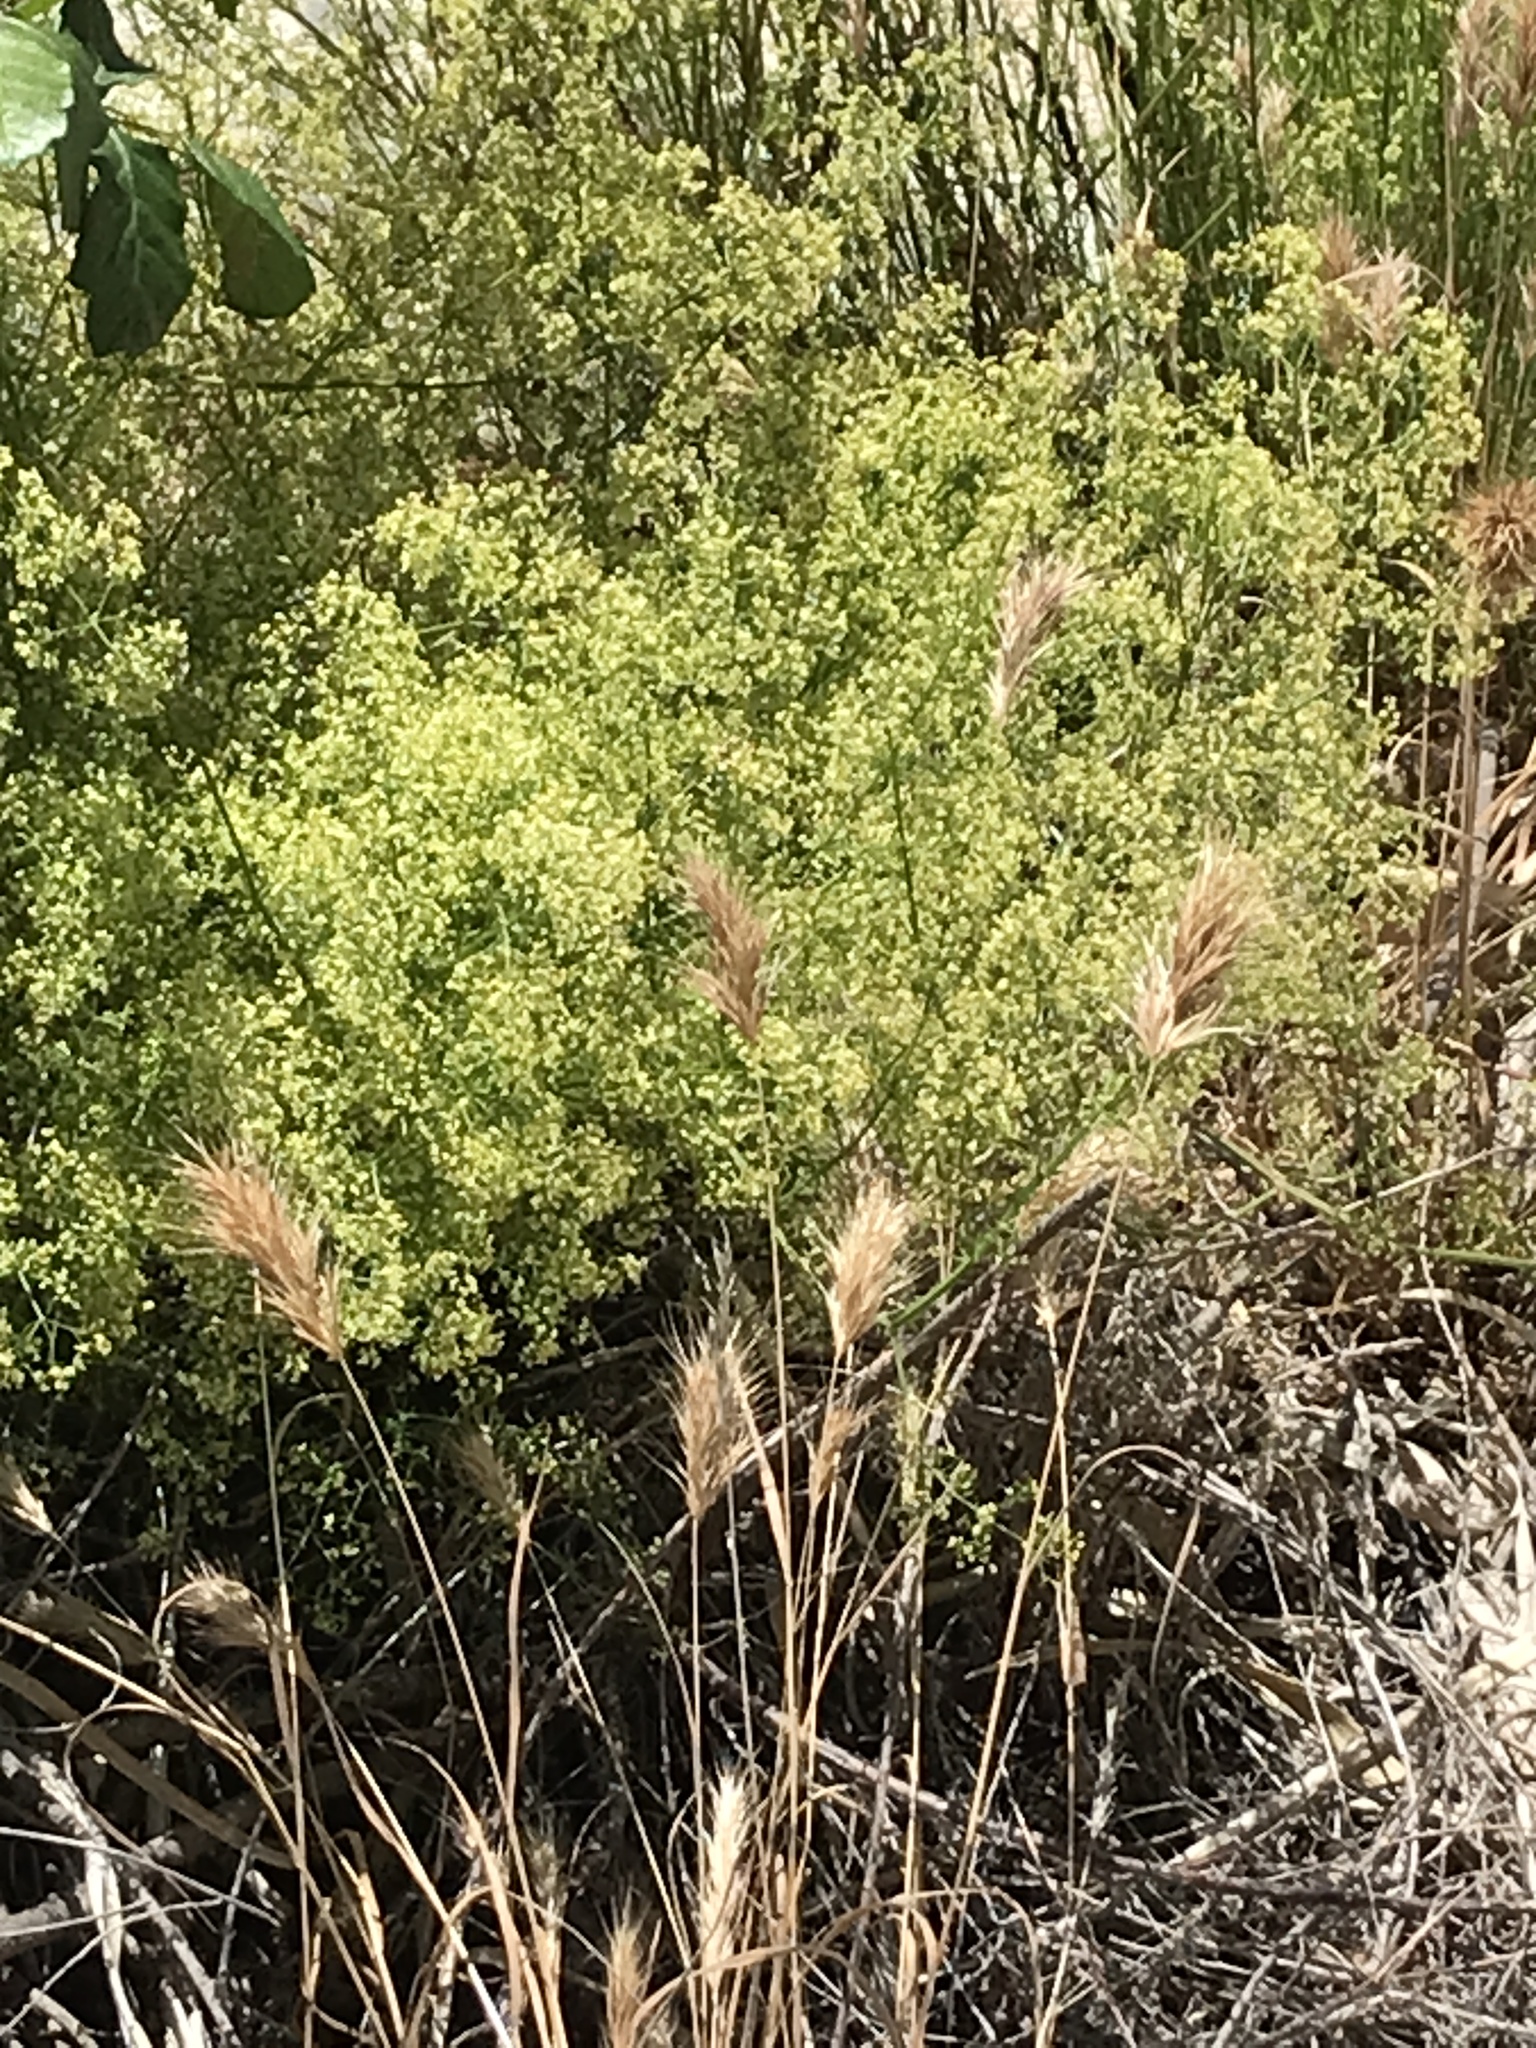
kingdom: Plantae
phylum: Tracheophyta
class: Magnoliopsida
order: Gentianales
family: Rubiaceae
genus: Galium
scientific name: Galium angustifolium
